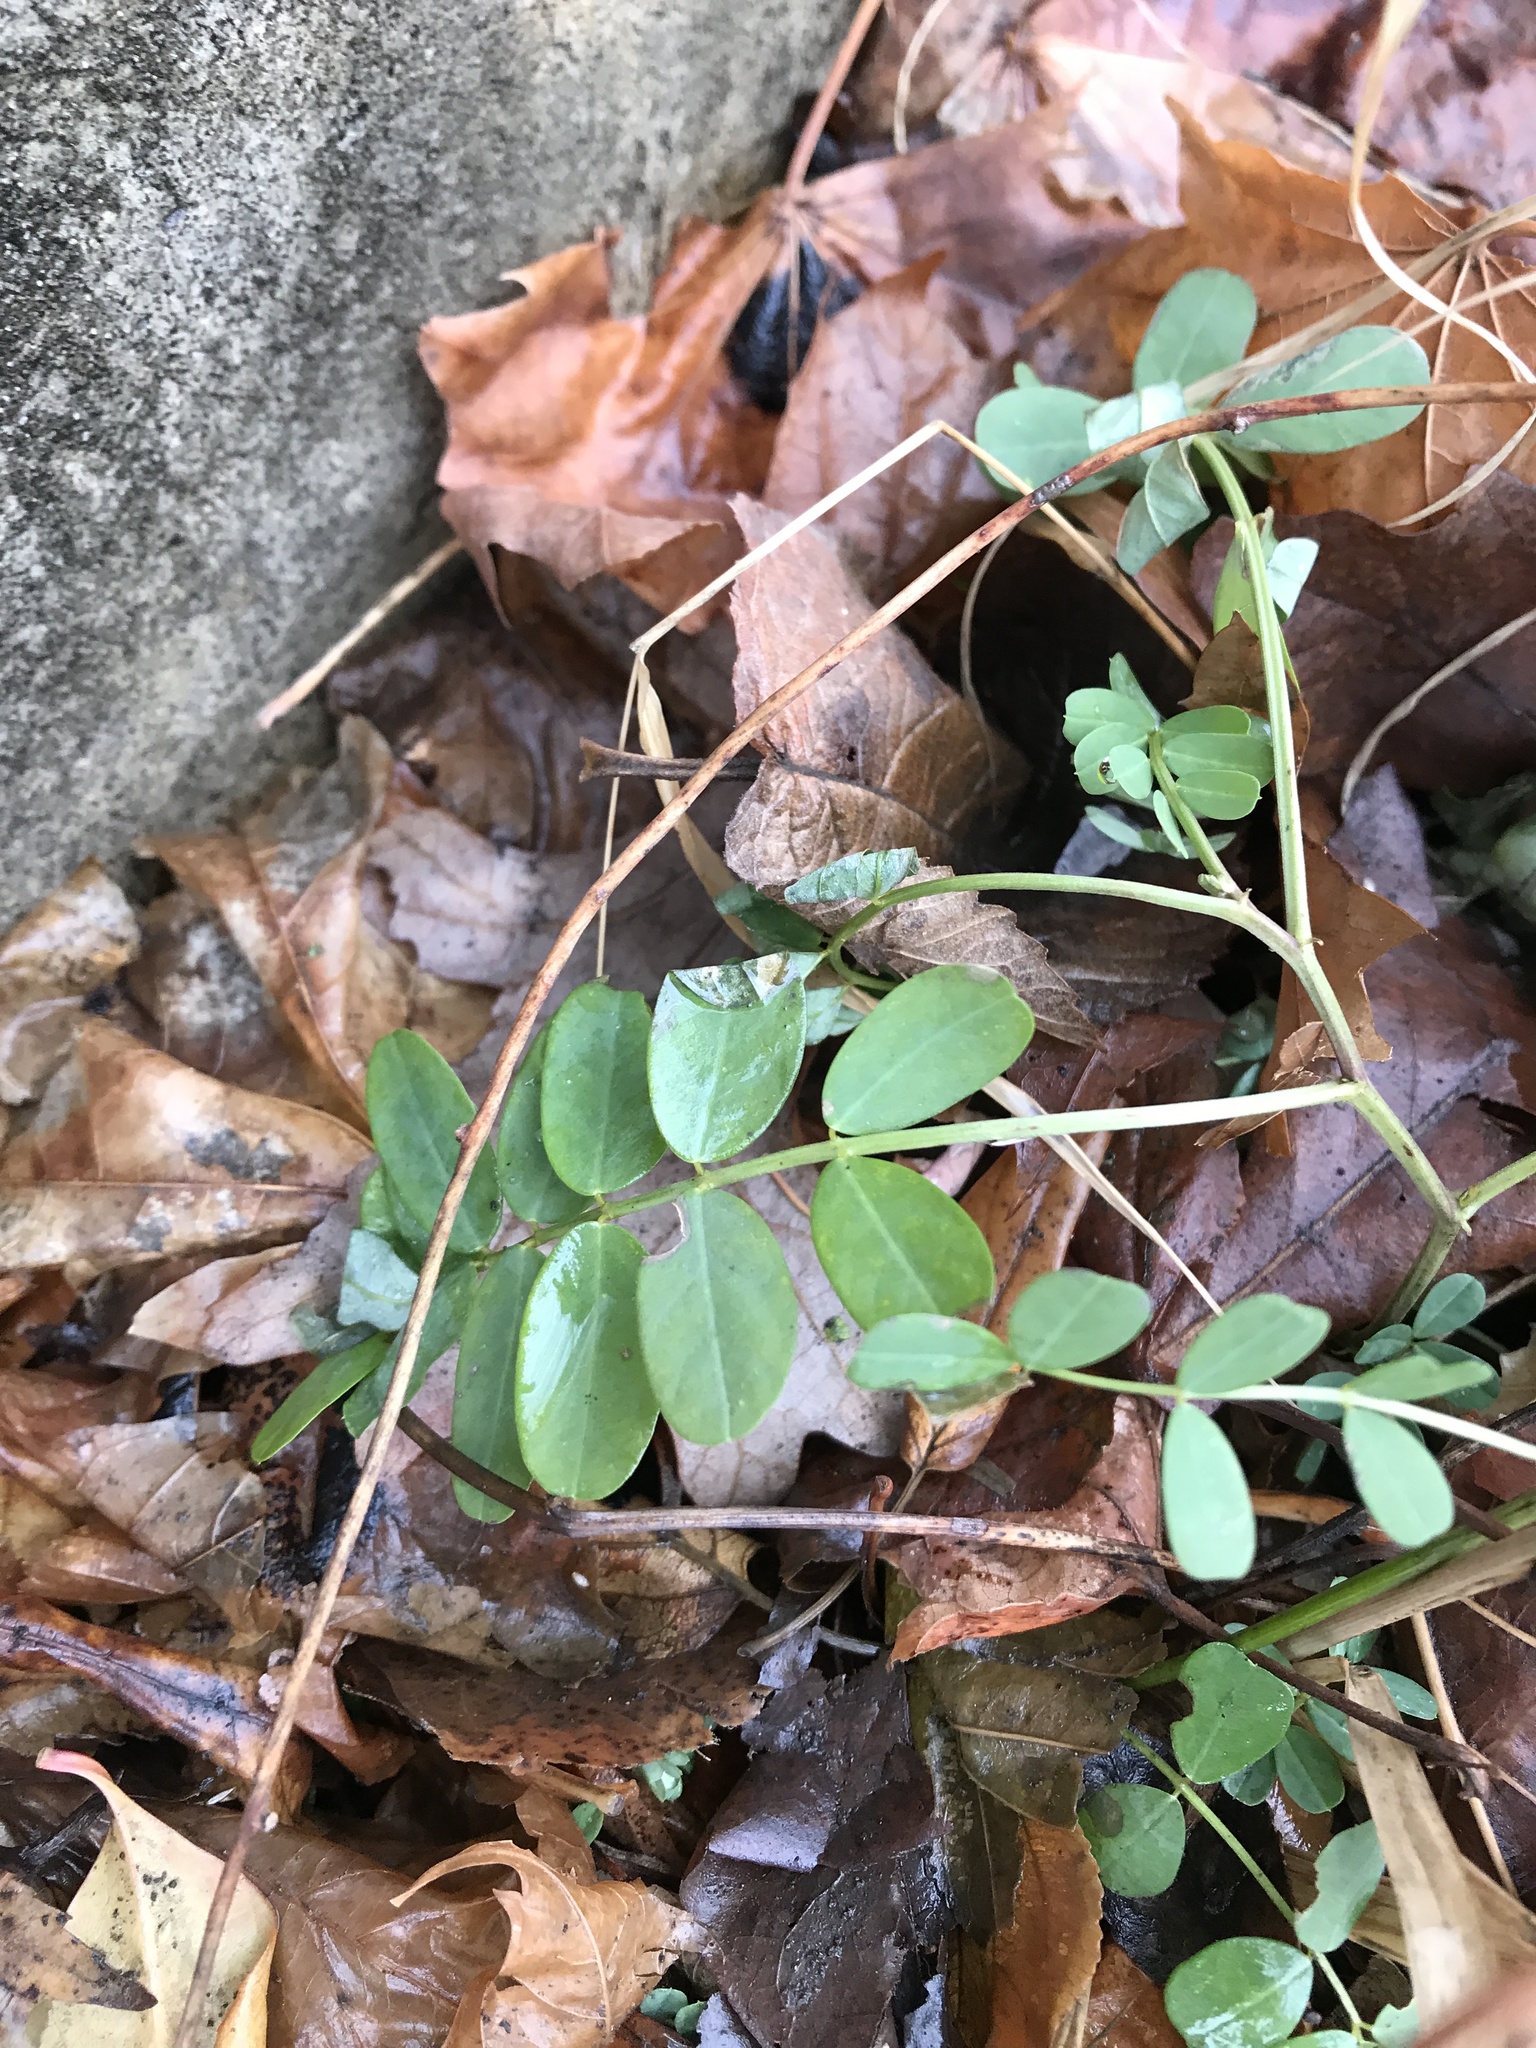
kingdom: Plantae
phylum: Tracheophyta
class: Magnoliopsida
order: Fabales
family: Fabaceae
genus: Coronilla
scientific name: Coronilla varia
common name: Crownvetch
